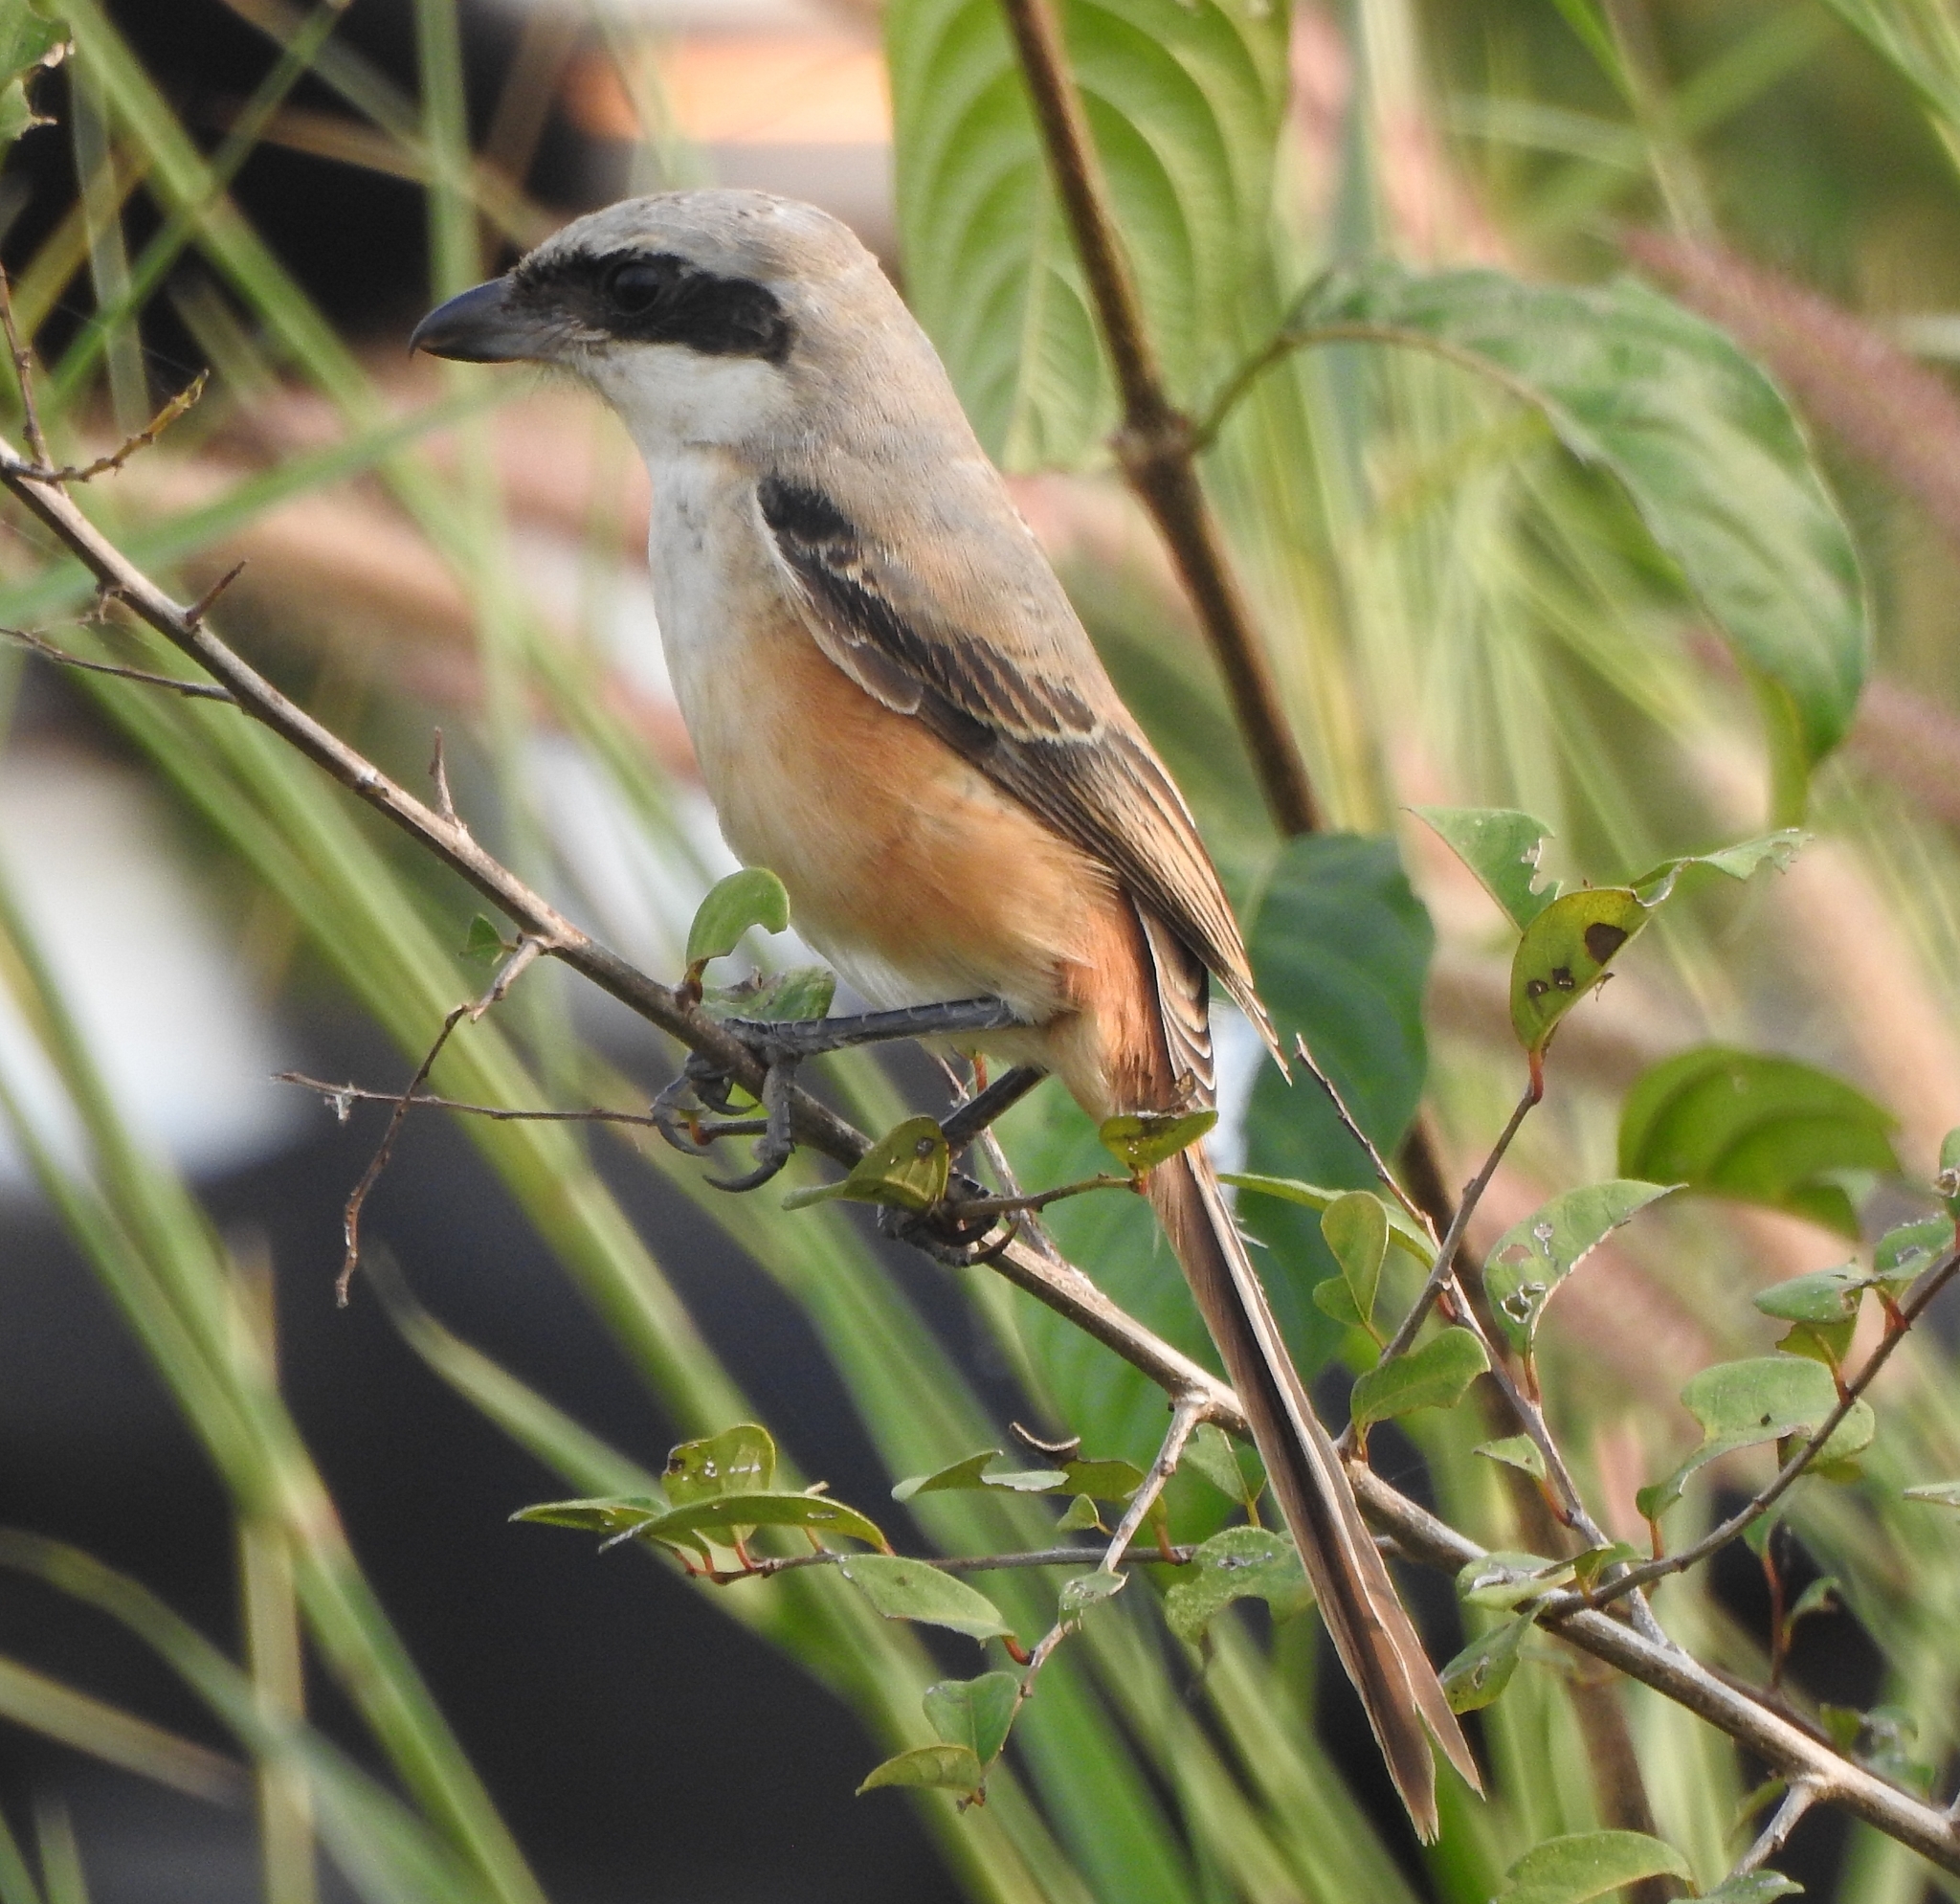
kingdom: Animalia
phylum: Chordata
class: Aves
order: Passeriformes
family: Laniidae
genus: Lanius
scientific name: Lanius schach
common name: Long-tailed shrike
